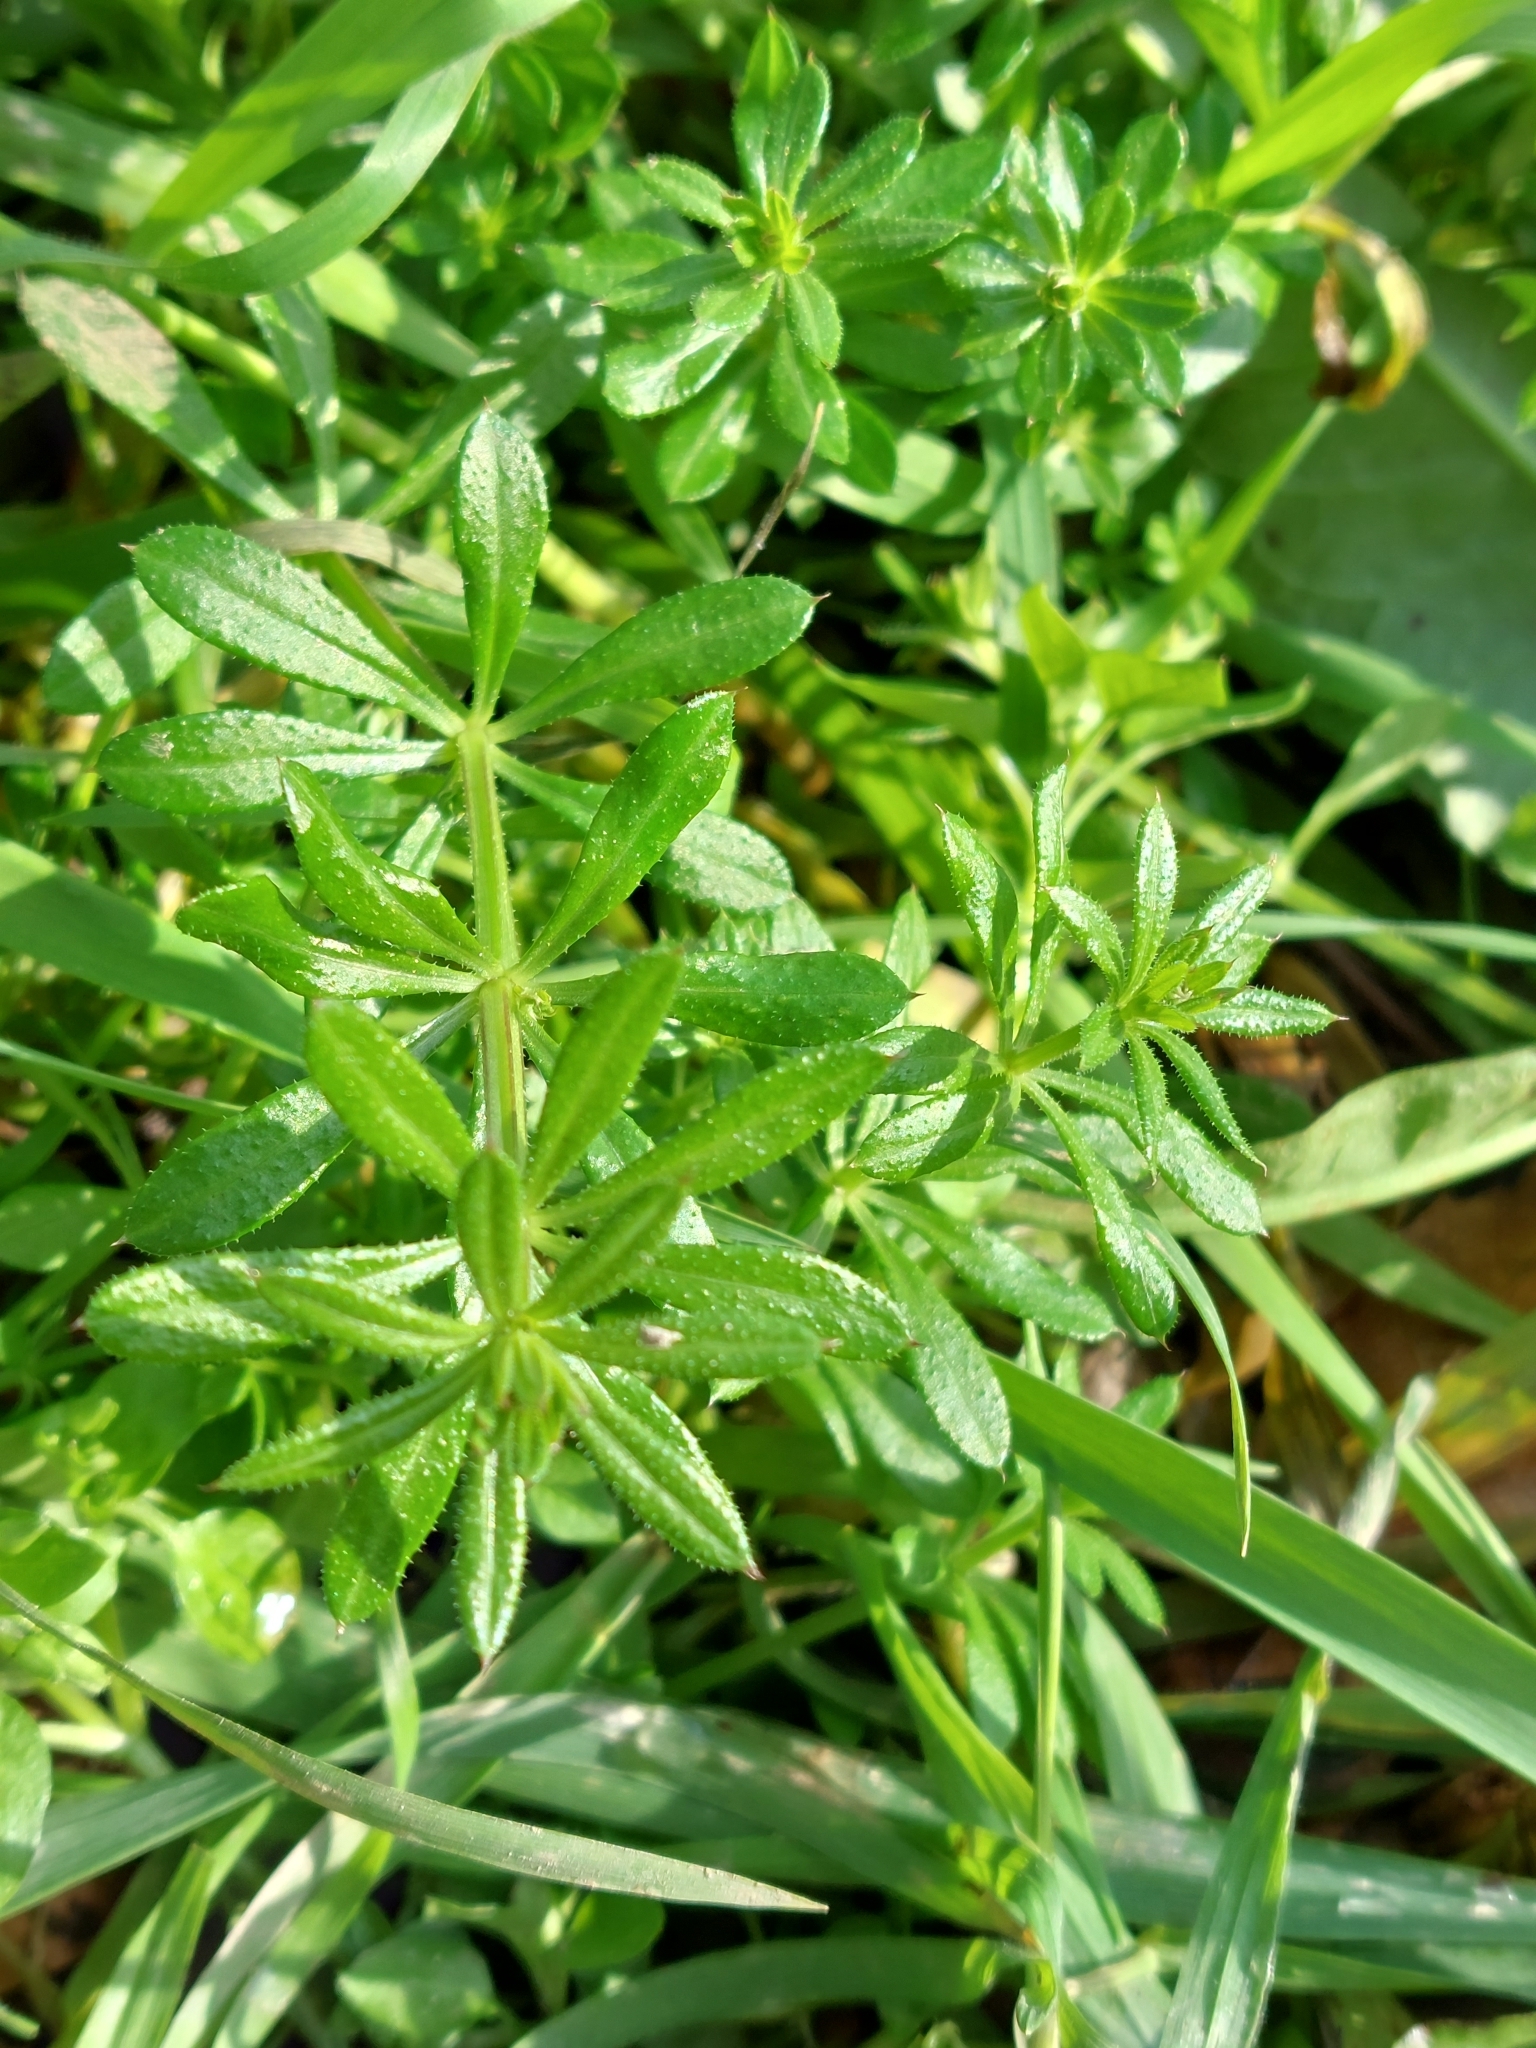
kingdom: Plantae
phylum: Tracheophyta
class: Magnoliopsida
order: Gentianales
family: Rubiaceae
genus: Galium
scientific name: Galium aparine
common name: Cleavers
